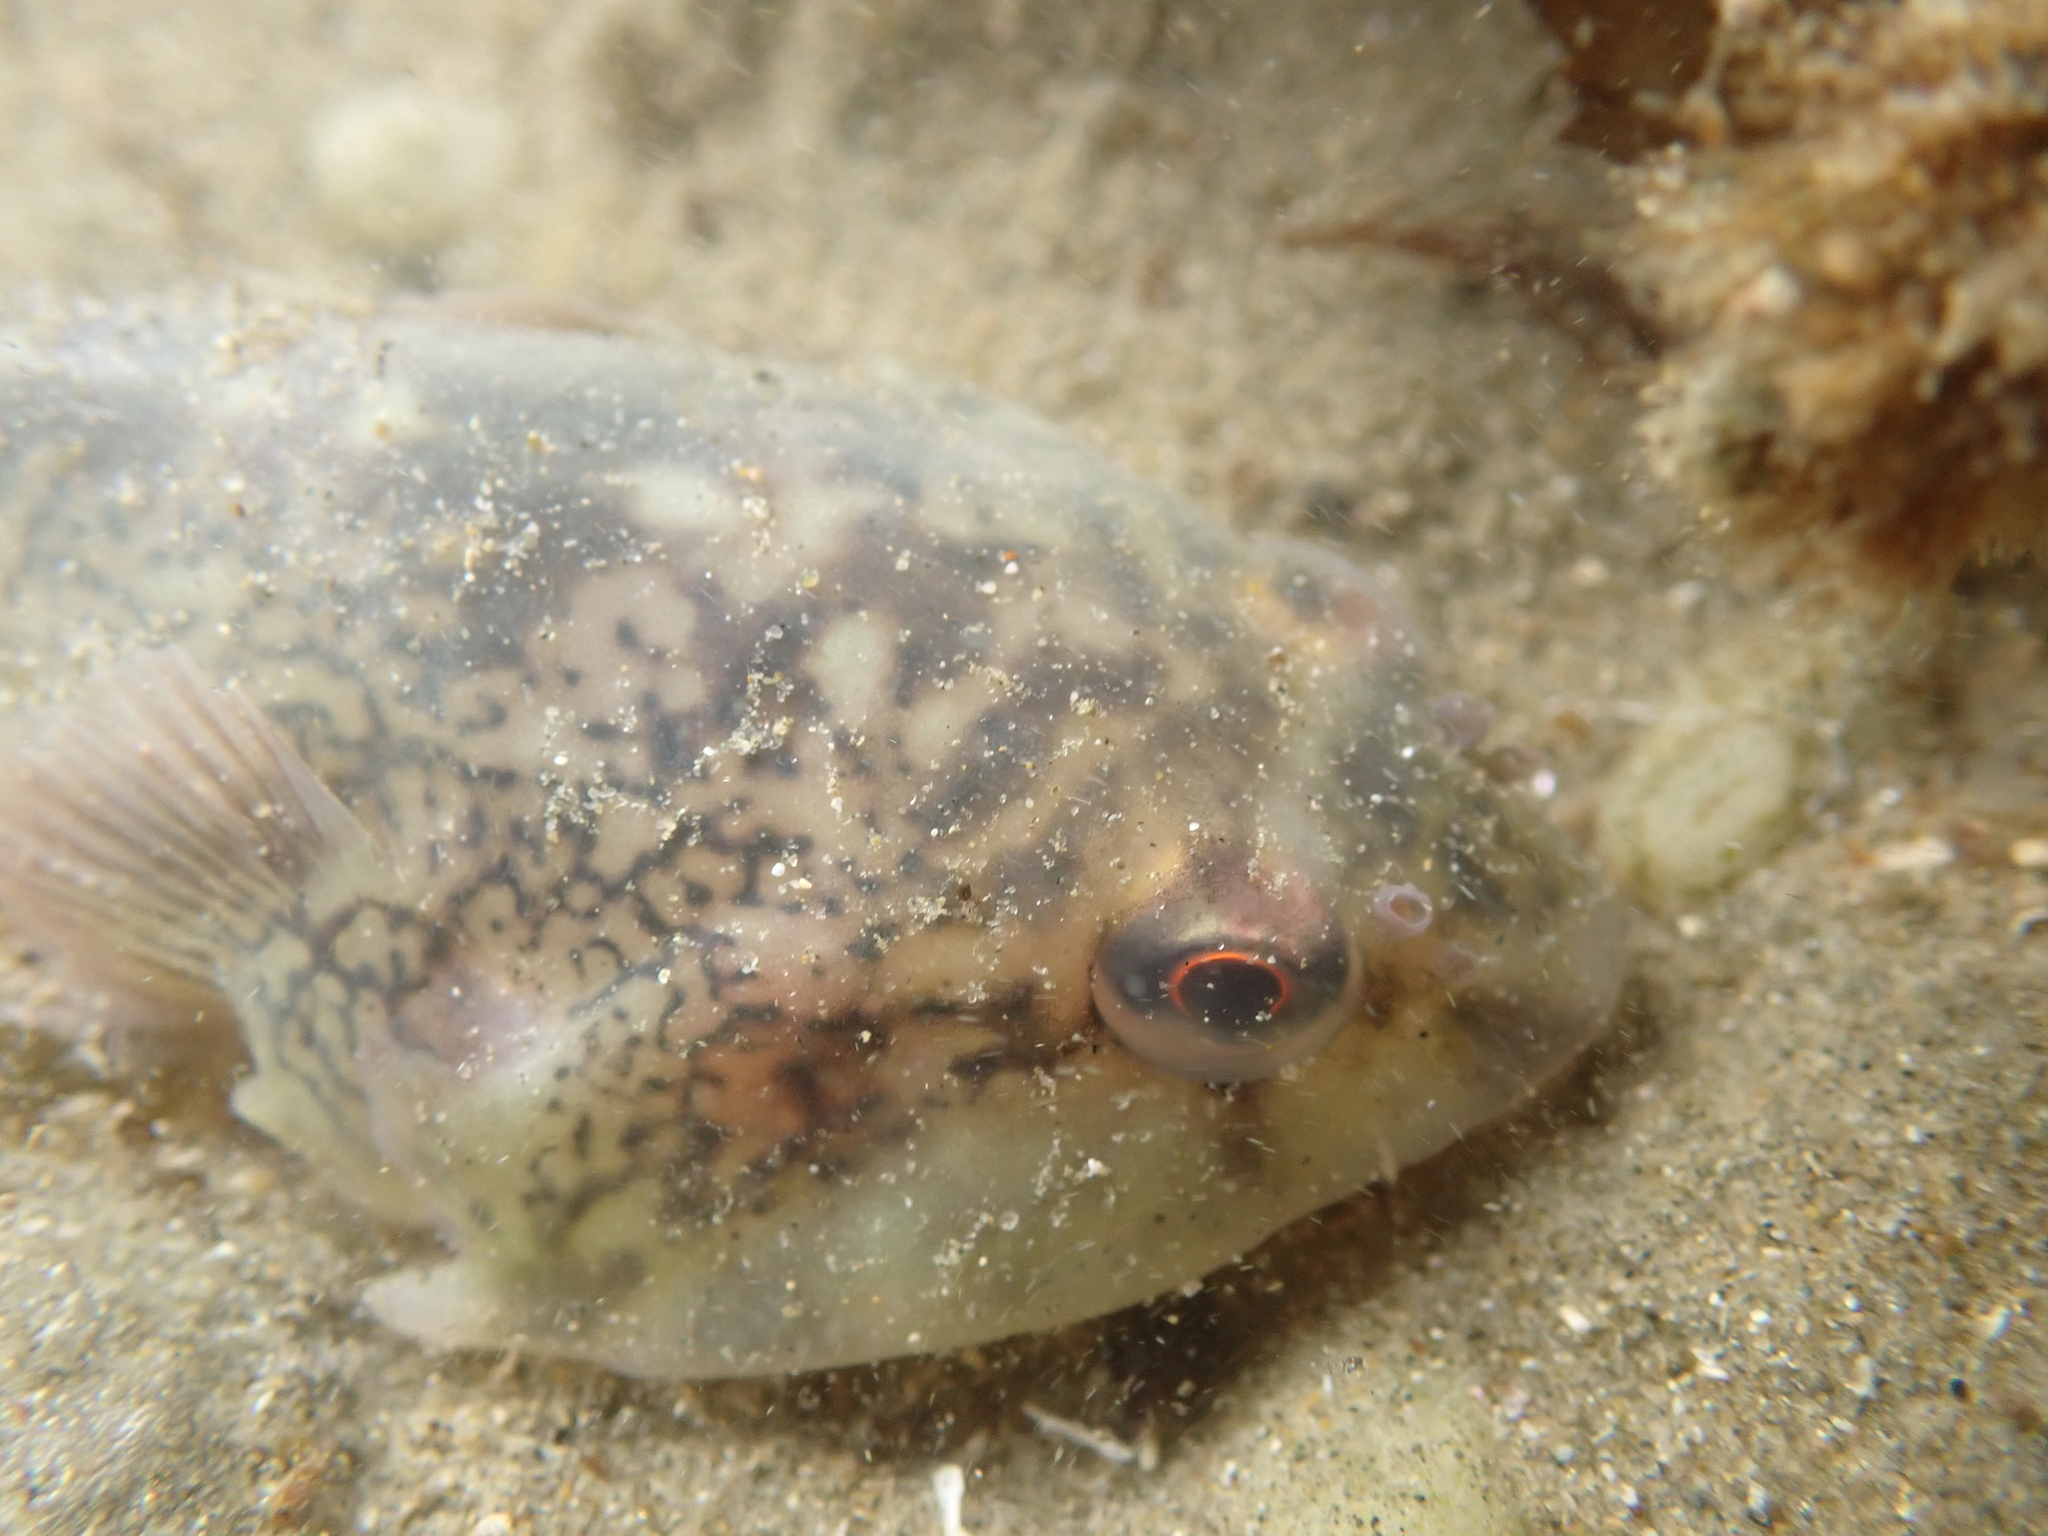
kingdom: Animalia
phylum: Chordata
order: Gobiesociformes
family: Gobiesocidae
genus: Diplocrepis
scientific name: Diplocrepis puniceus
